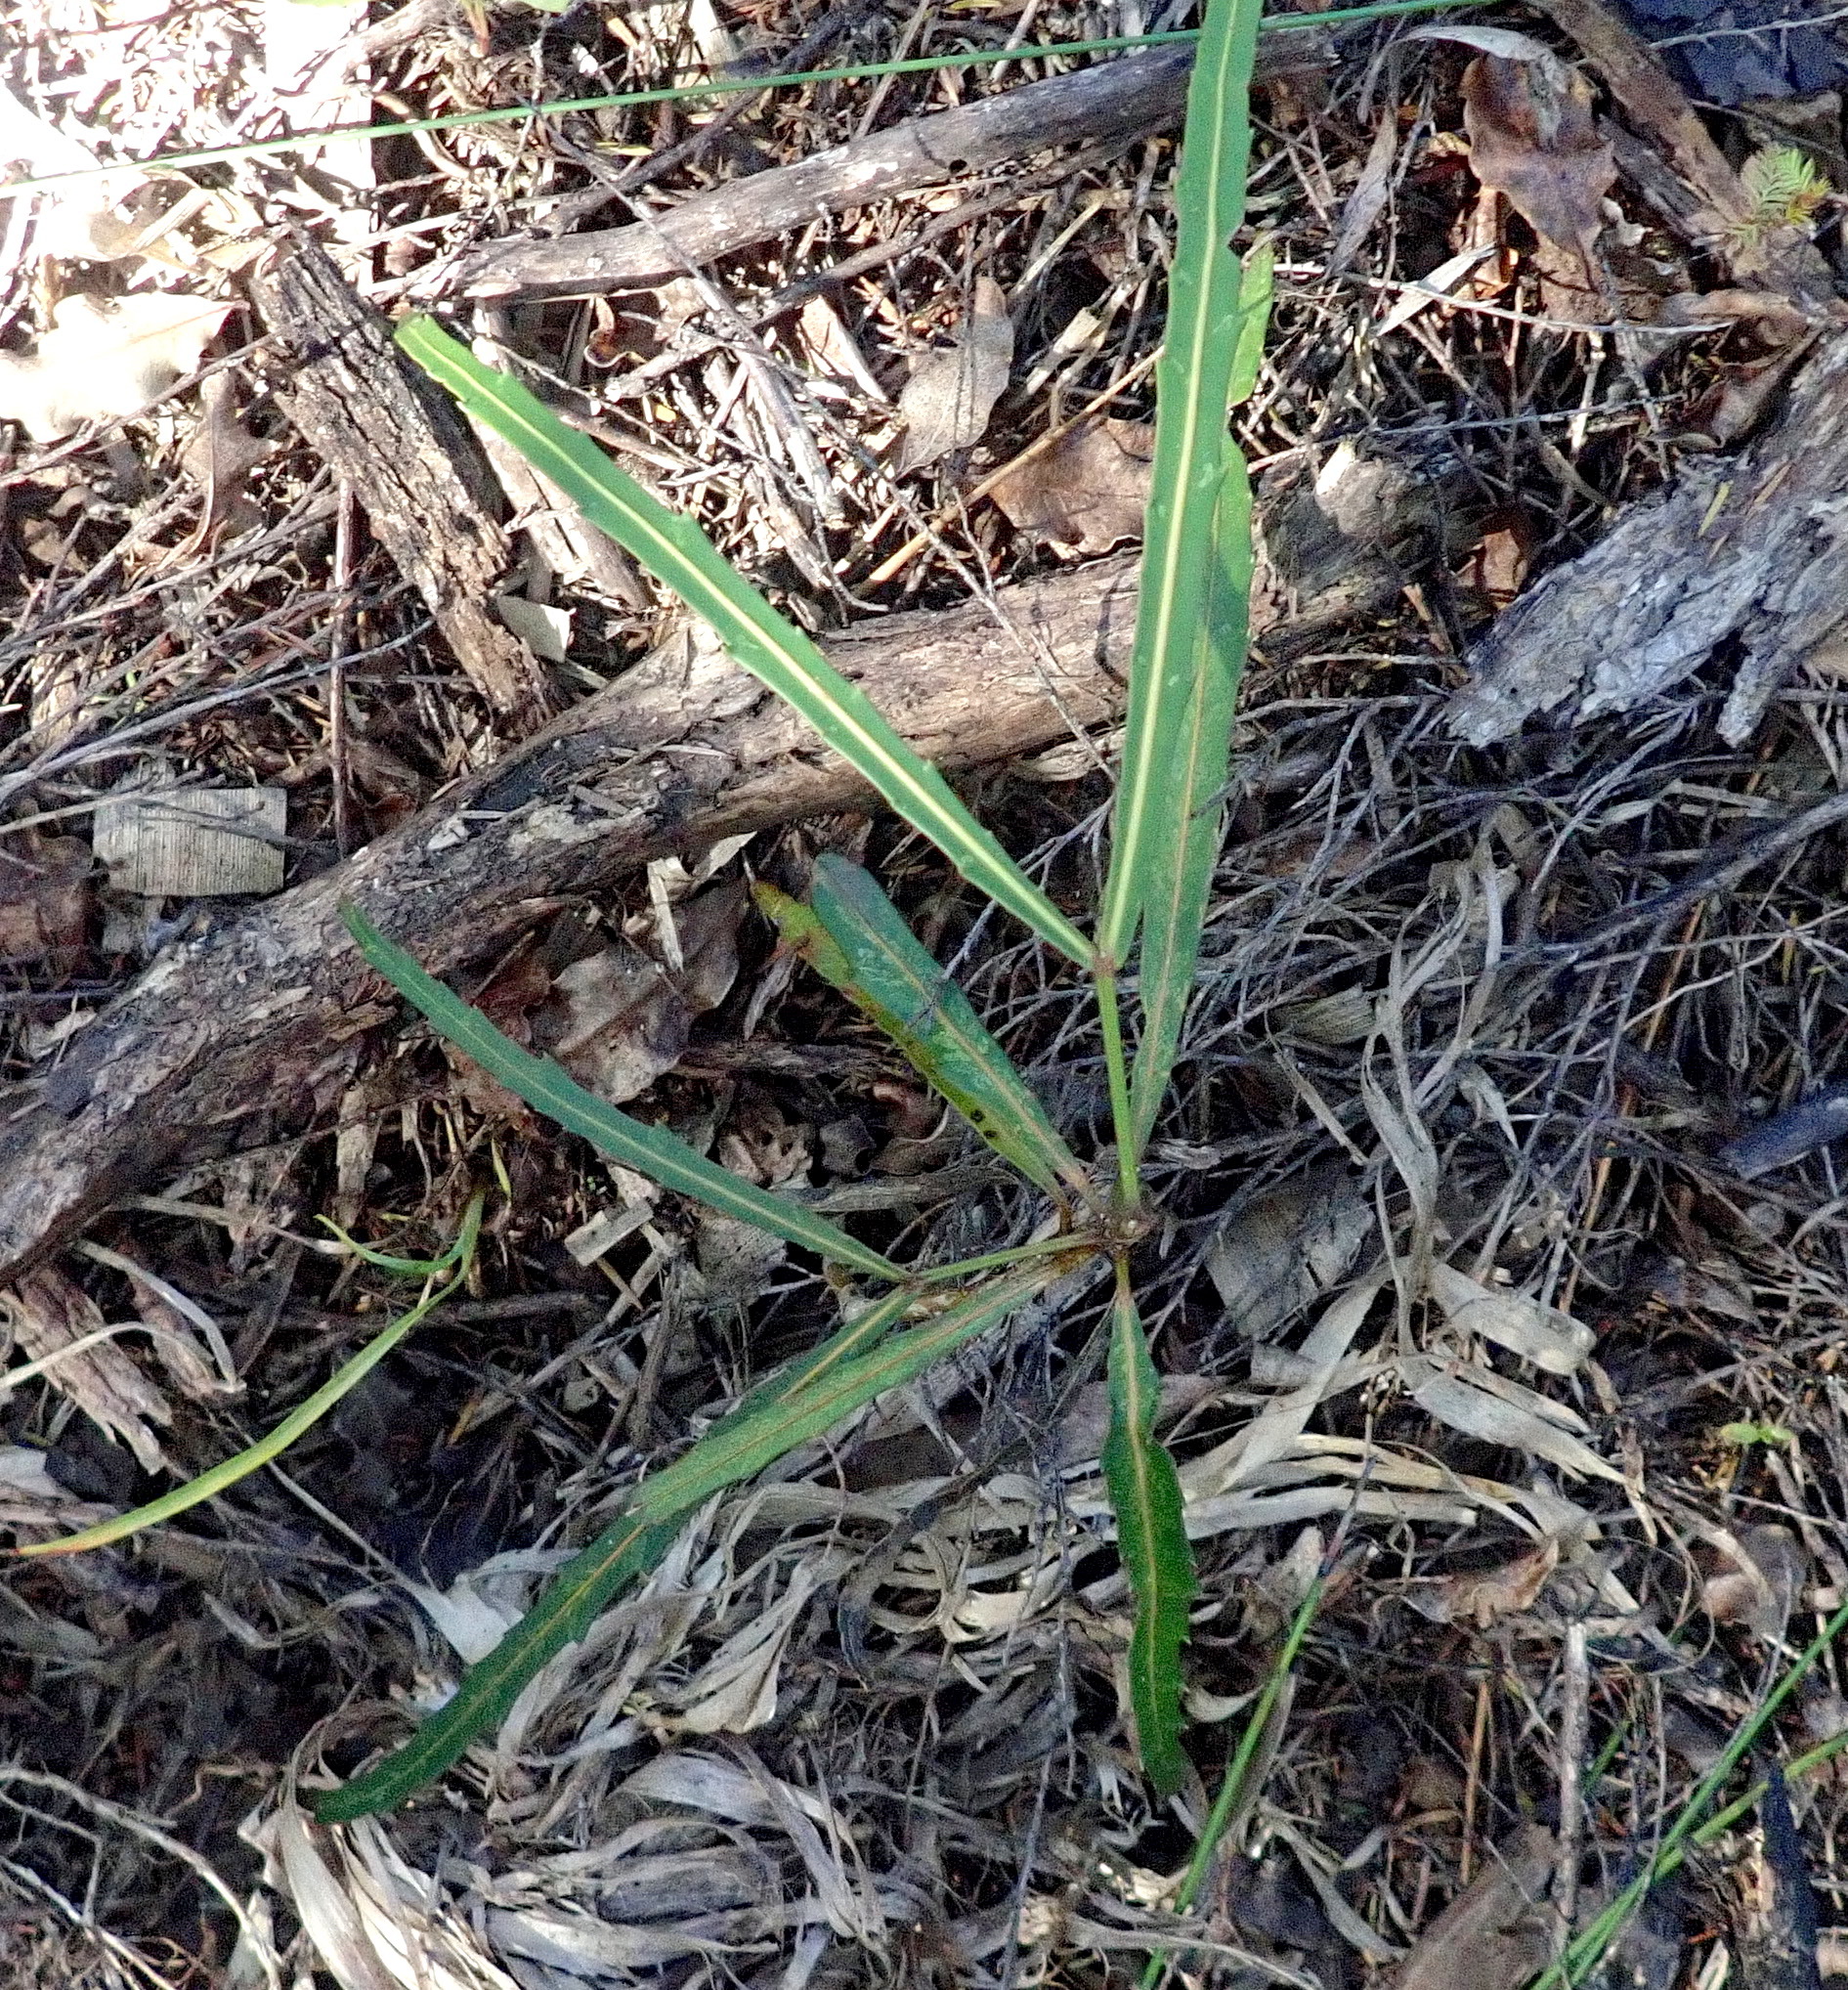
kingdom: Plantae
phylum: Tracheophyta
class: Magnoliopsida
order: Apiales
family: Araliaceae
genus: Pseudopanax
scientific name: Pseudopanax crassifolius
